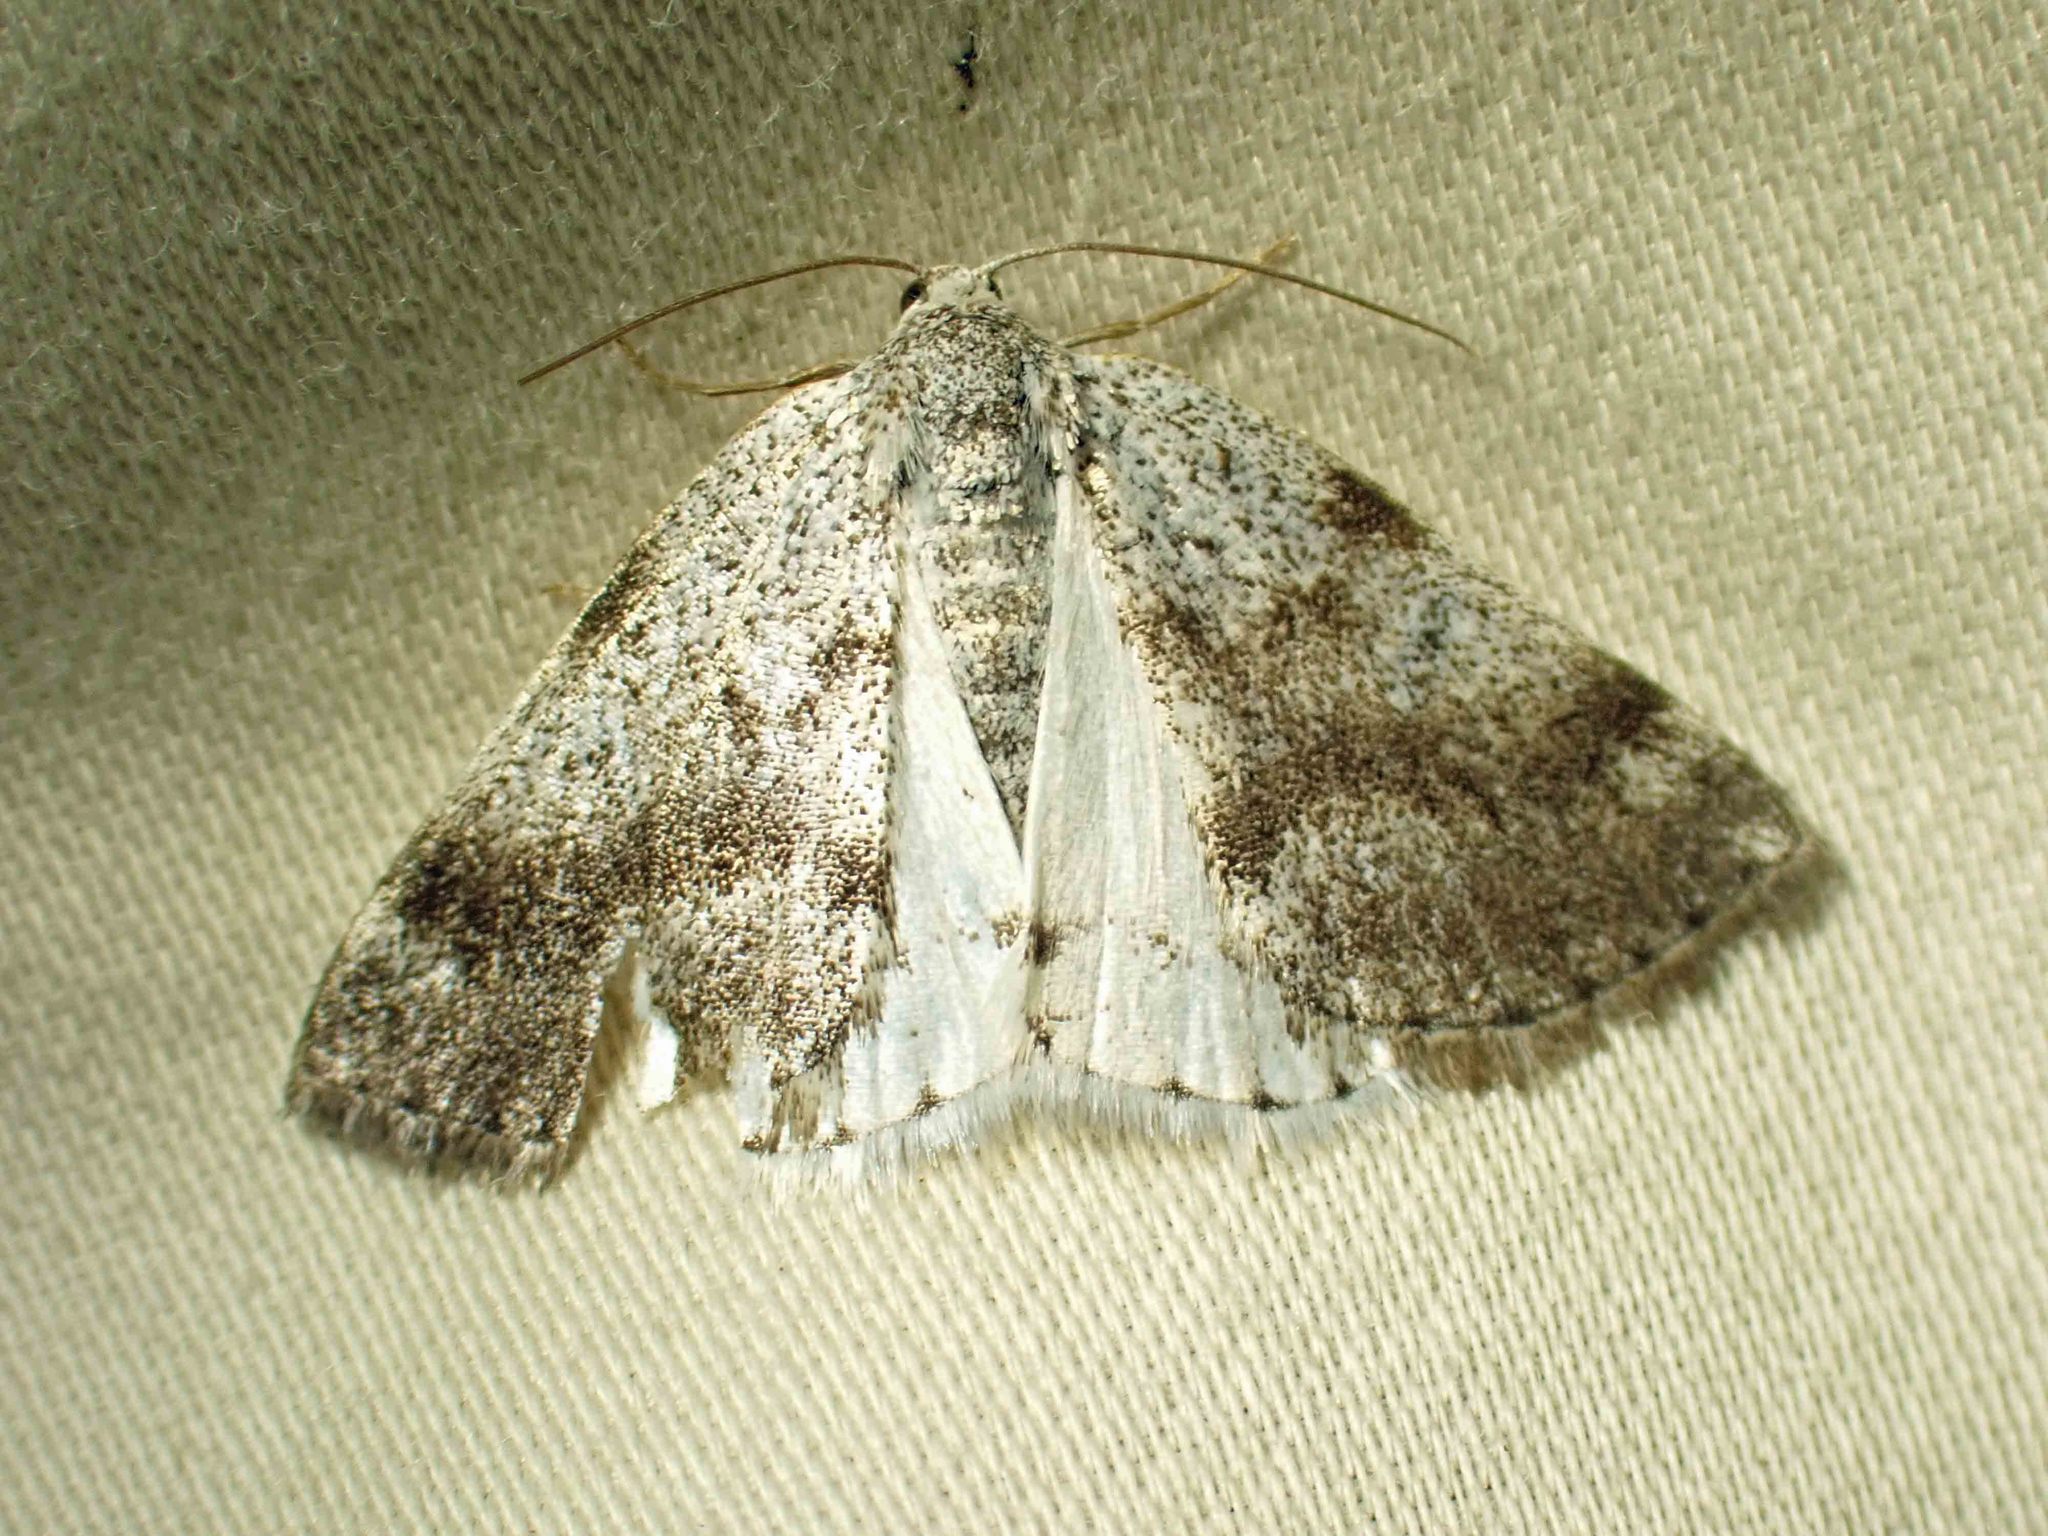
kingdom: Animalia
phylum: Arthropoda
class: Insecta
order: Lepidoptera
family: Geometridae
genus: Lomographa
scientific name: Lomographa semiclarata
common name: Bluish spring moth
